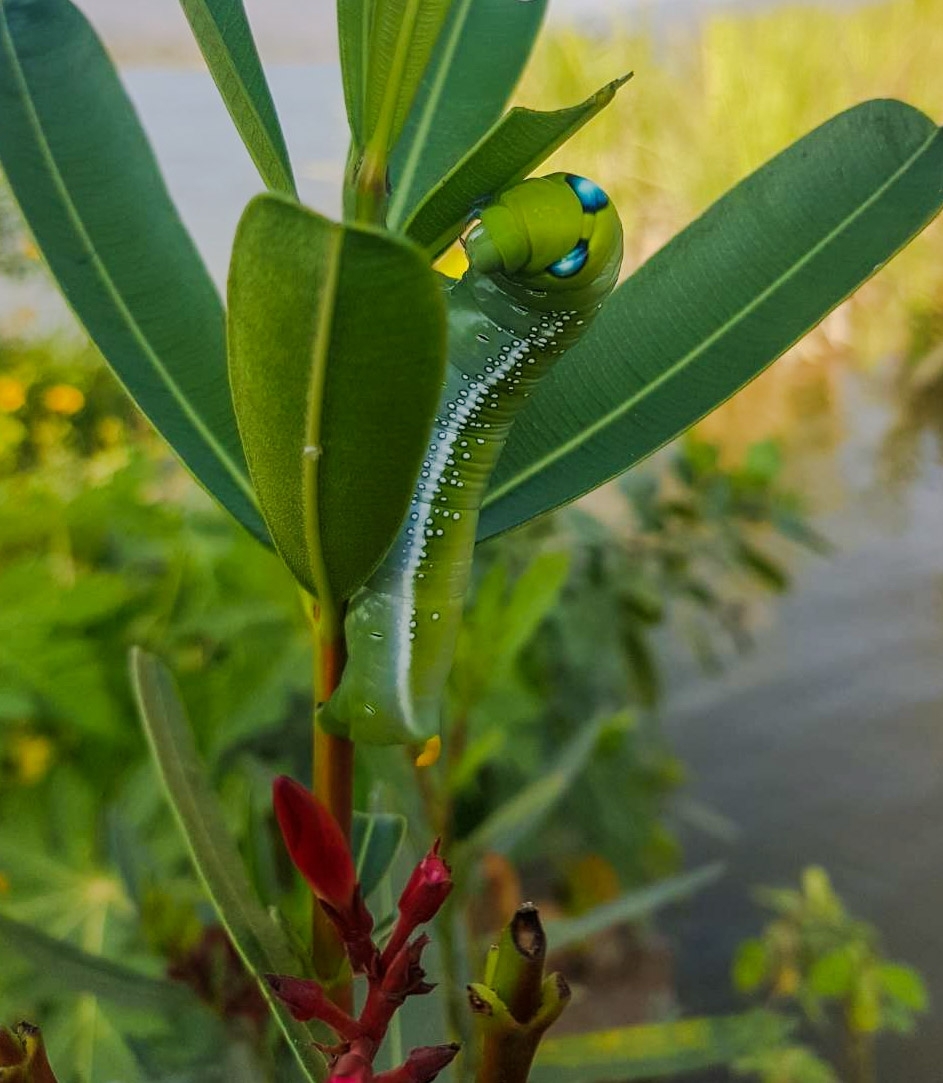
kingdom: Animalia
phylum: Arthropoda
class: Insecta
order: Lepidoptera
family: Sphingidae
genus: Daphnis
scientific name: Daphnis nerii
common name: Oleander hawk-moth
